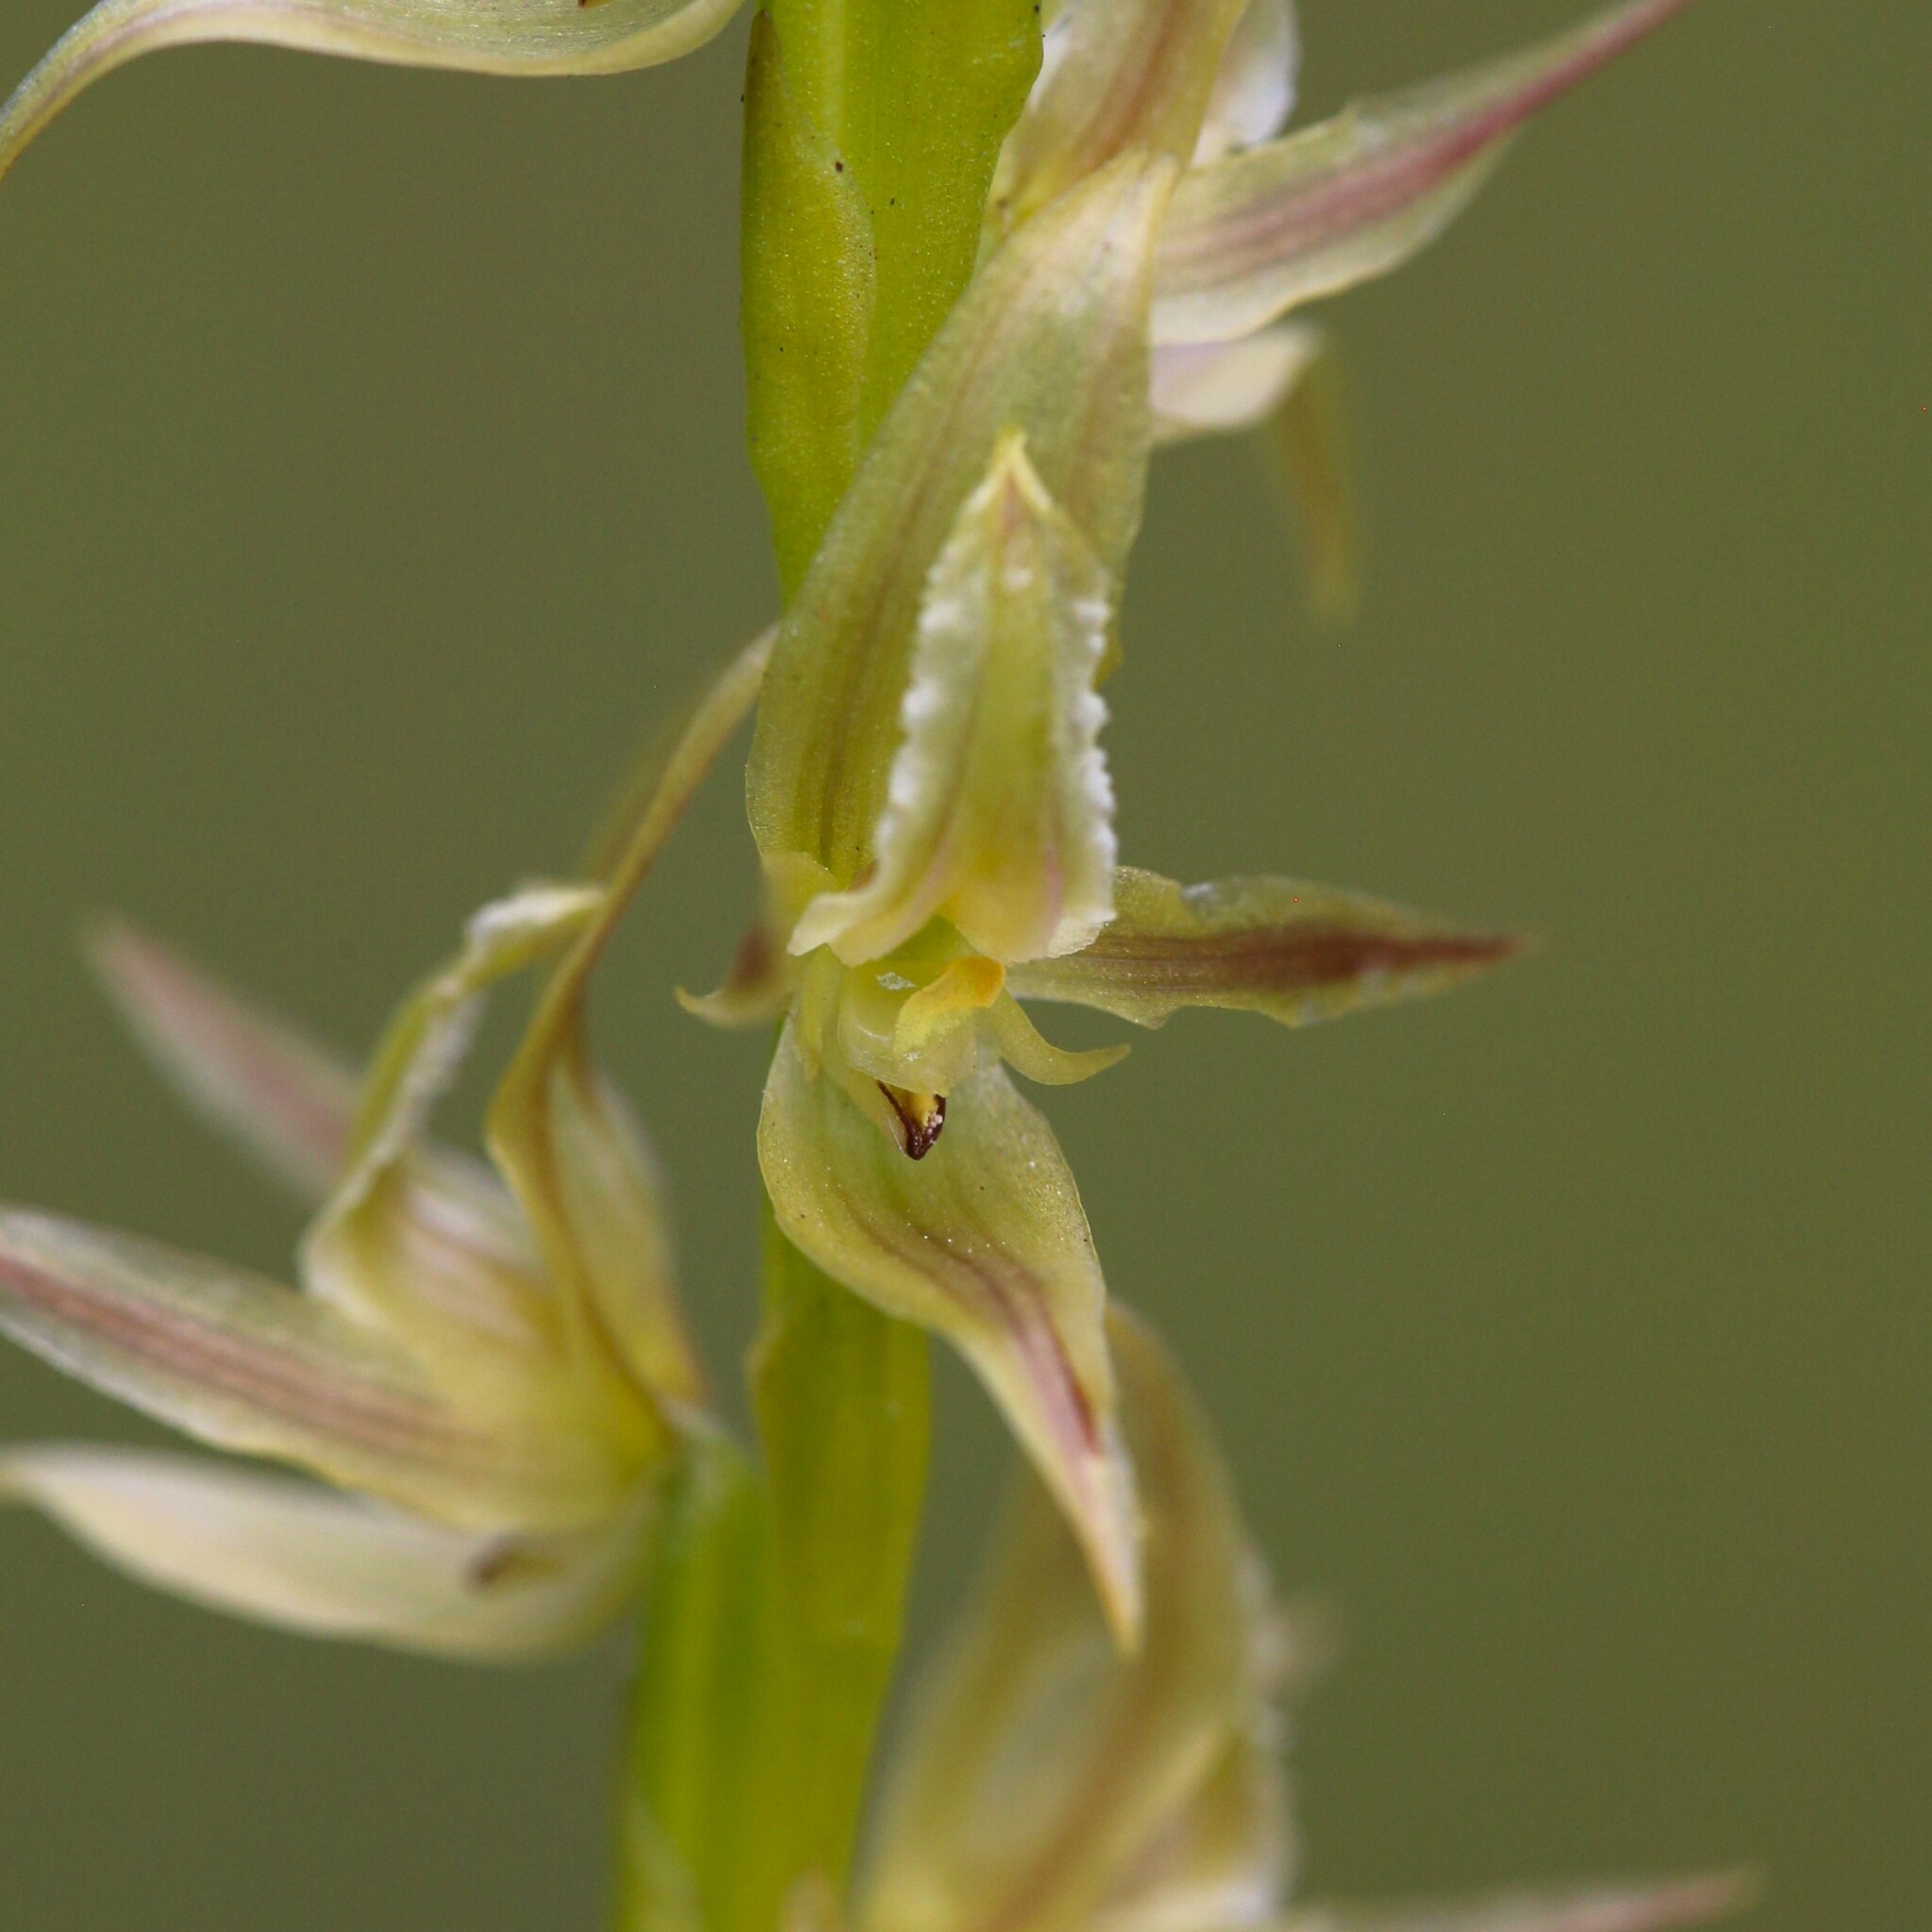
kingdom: Plantae
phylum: Tracheophyta
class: Liliopsida
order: Asparagales
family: Orchidaceae
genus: Prasophyllum
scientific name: Prasophyllum drummondii
